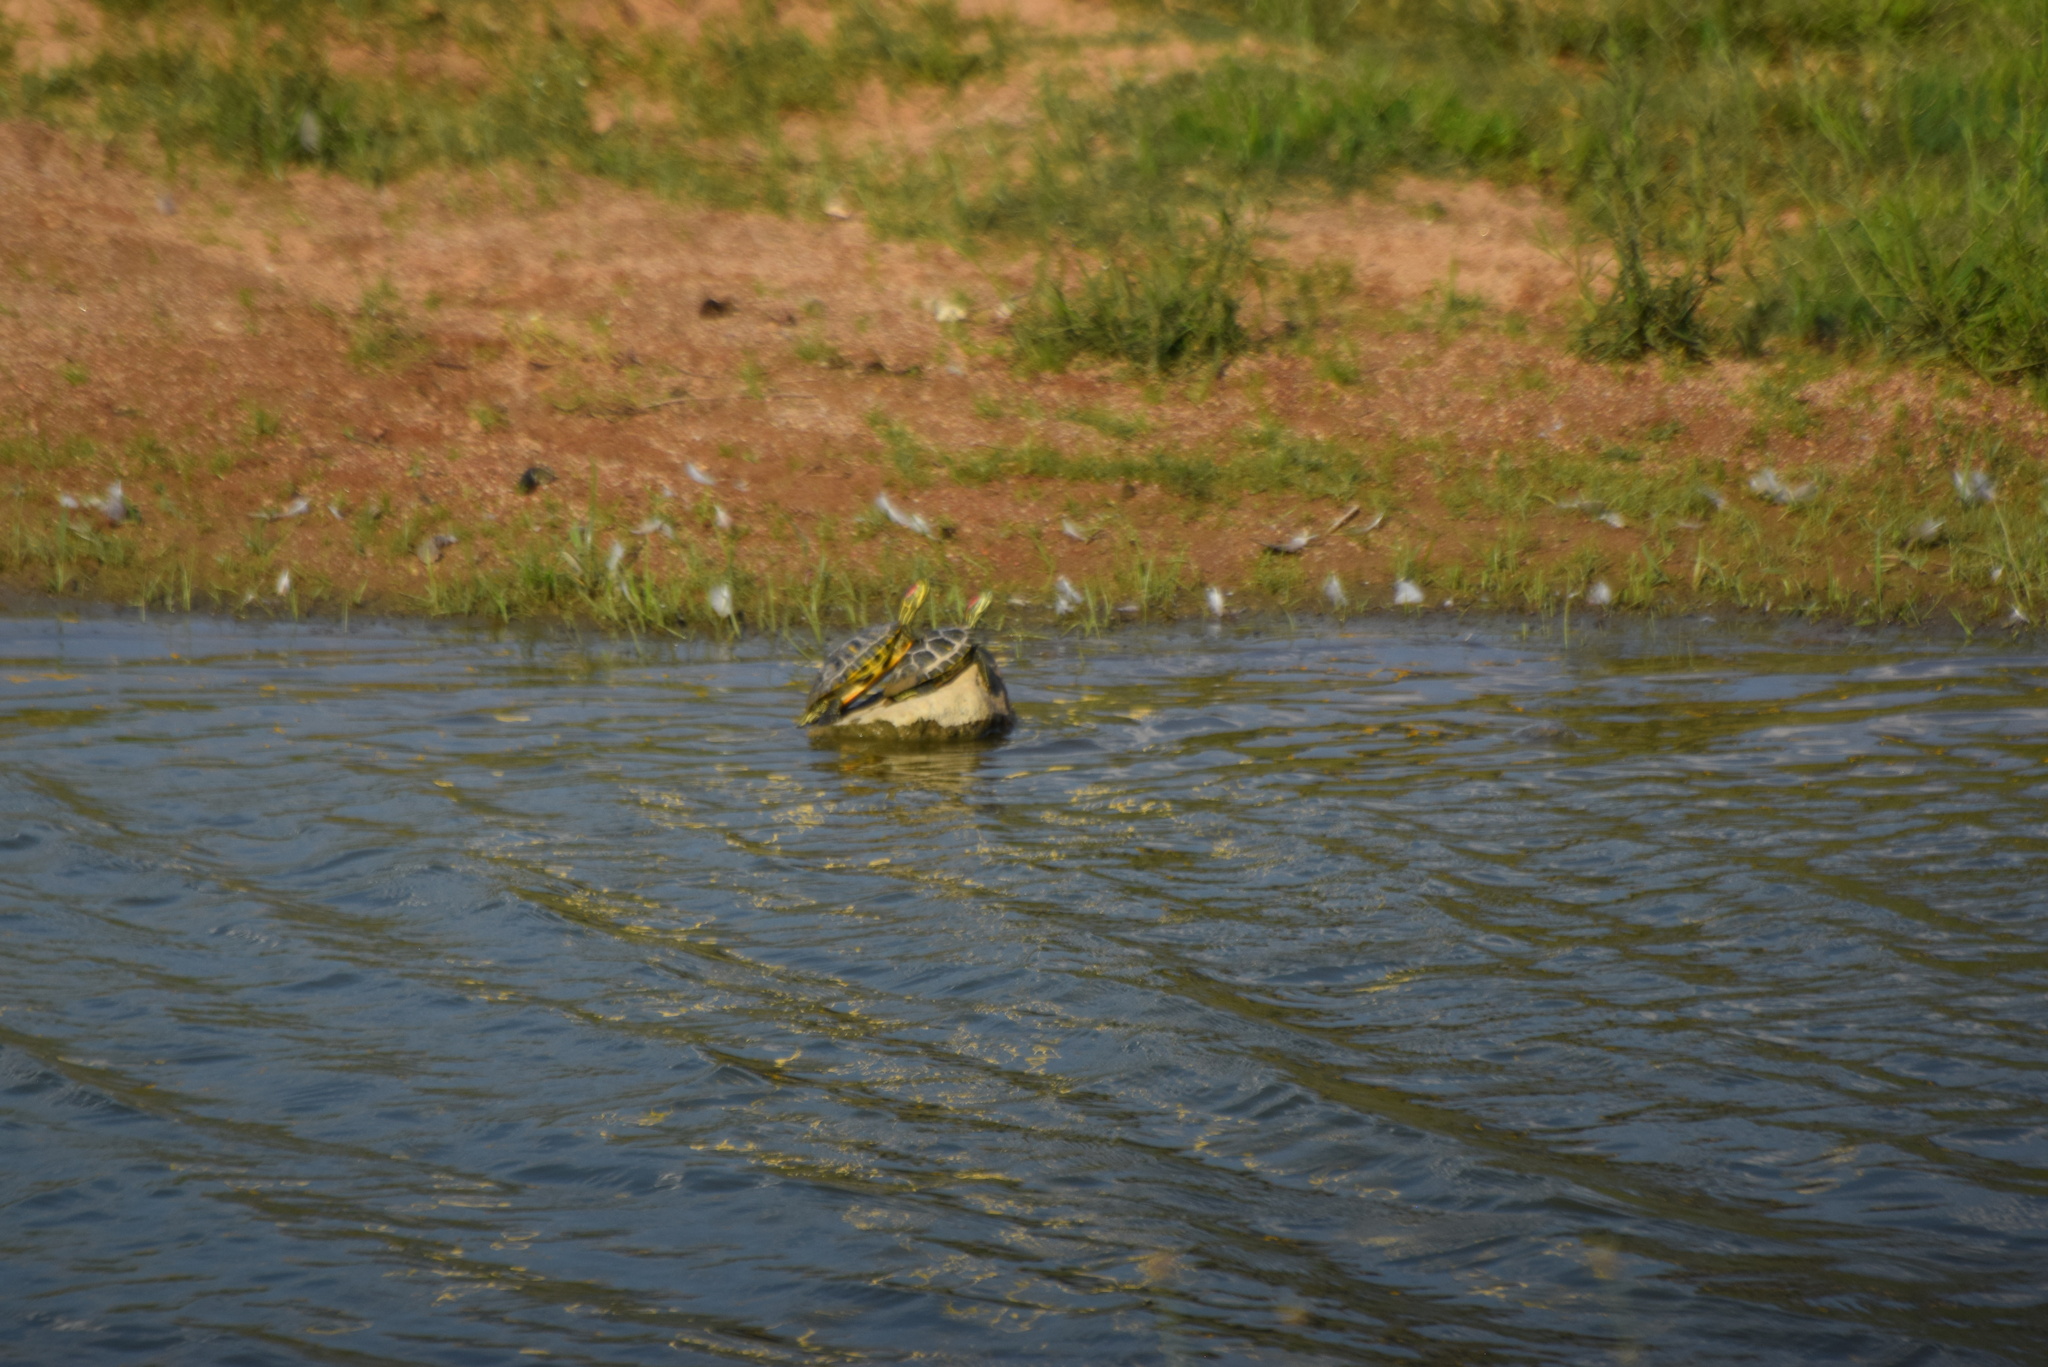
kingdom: Animalia
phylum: Chordata
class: Testudines
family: Emydidae
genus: Trachemys
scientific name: Trachemys scripta
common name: Slider
